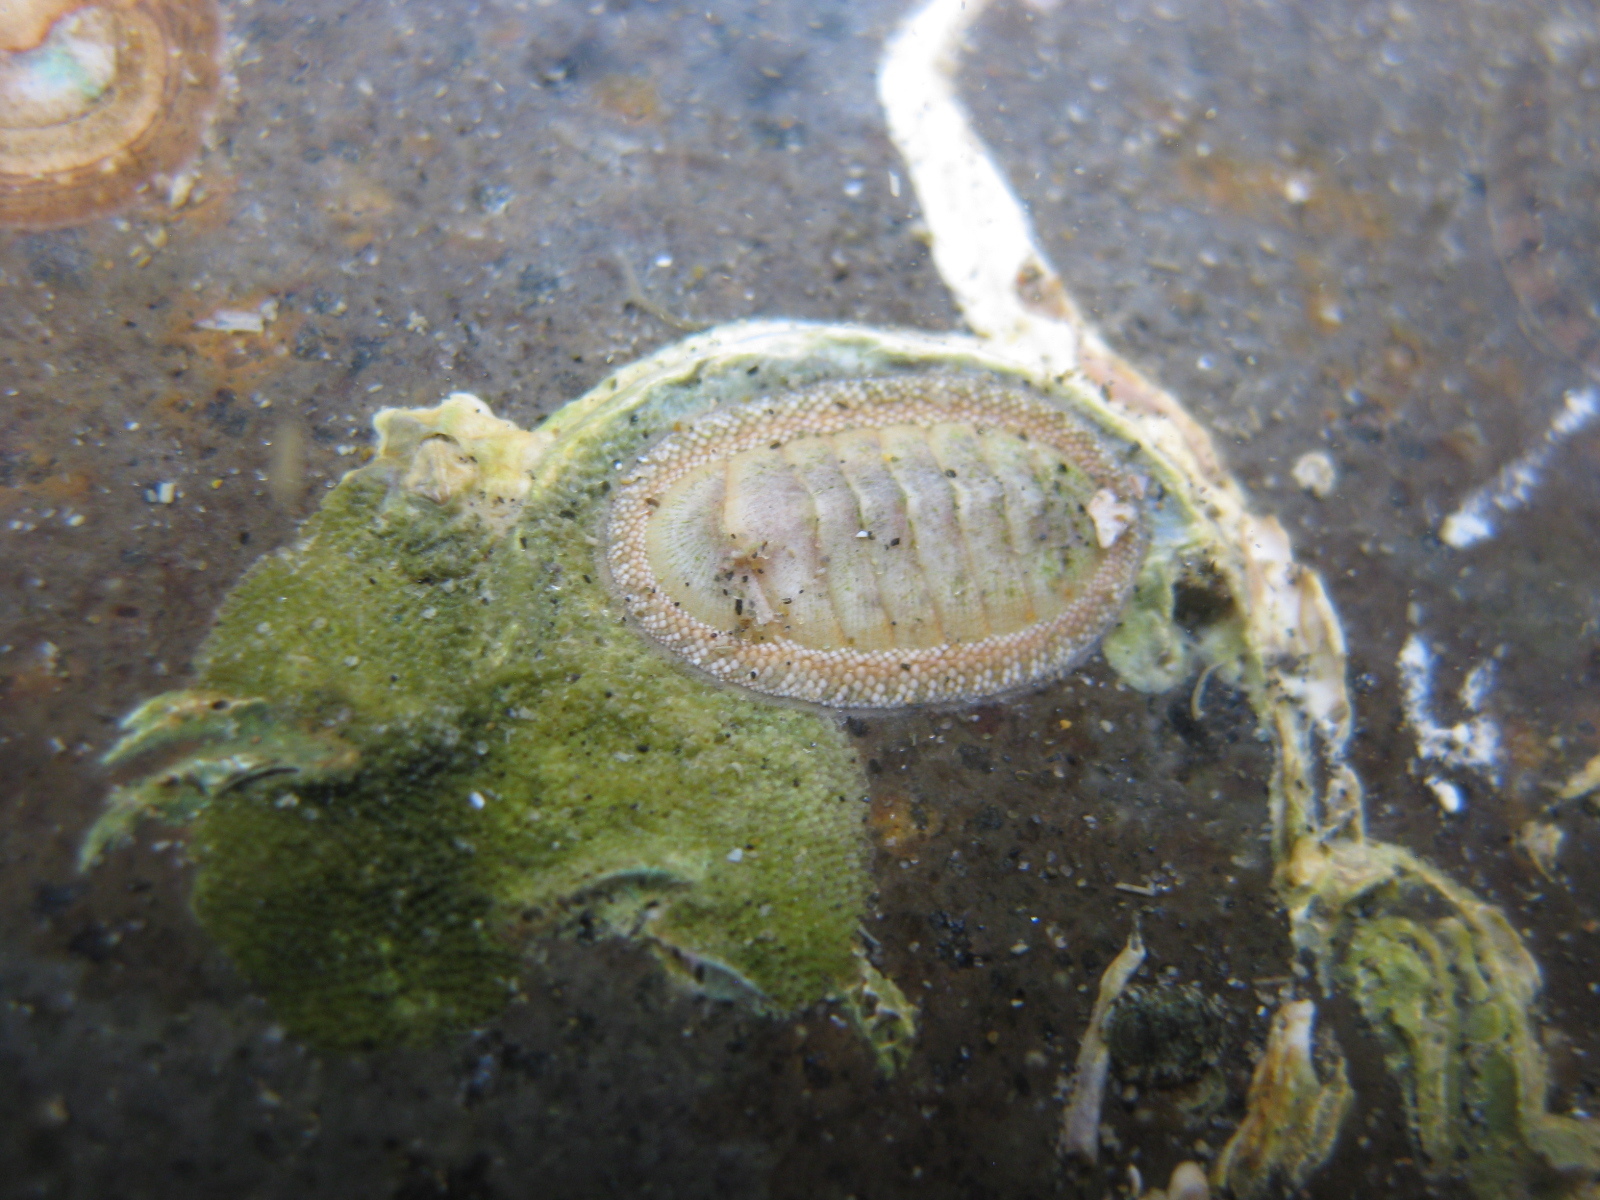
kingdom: Animalia
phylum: Mollusca
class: Polyplacophora
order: Chitonida
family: Chitonidae
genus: Chiton
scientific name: Chiton glaucus
